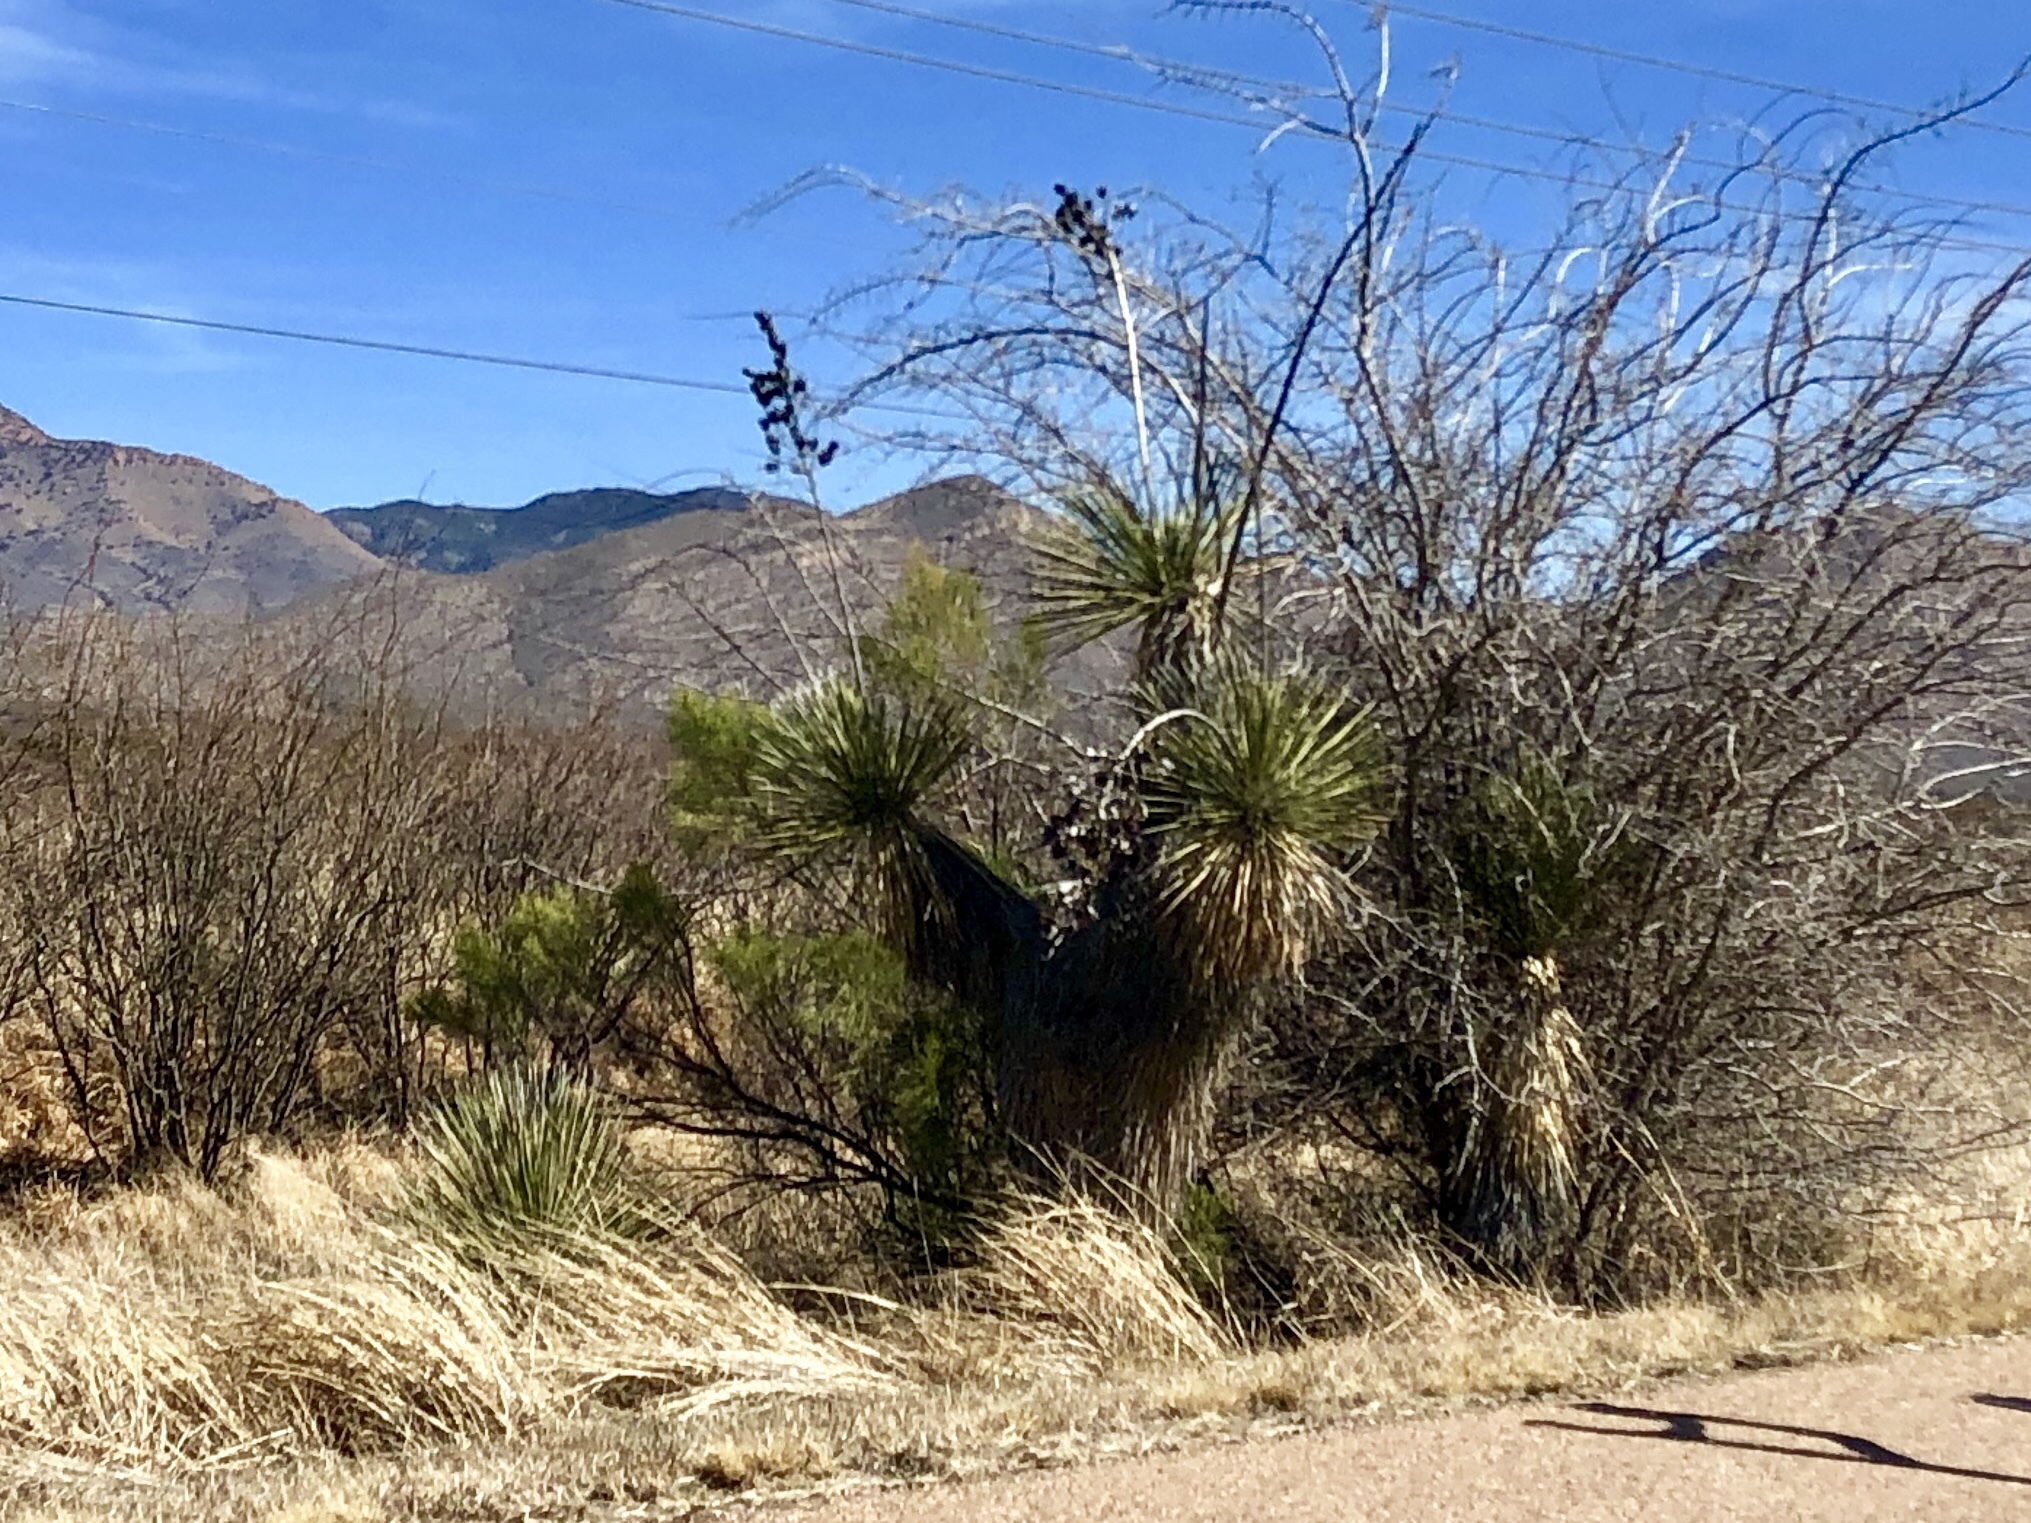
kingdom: Plantae
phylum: Tracheophyta
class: Liliopsida
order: Asparagales
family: Asparagaceae
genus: Yucca
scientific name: Yucca elata
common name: Palmella
